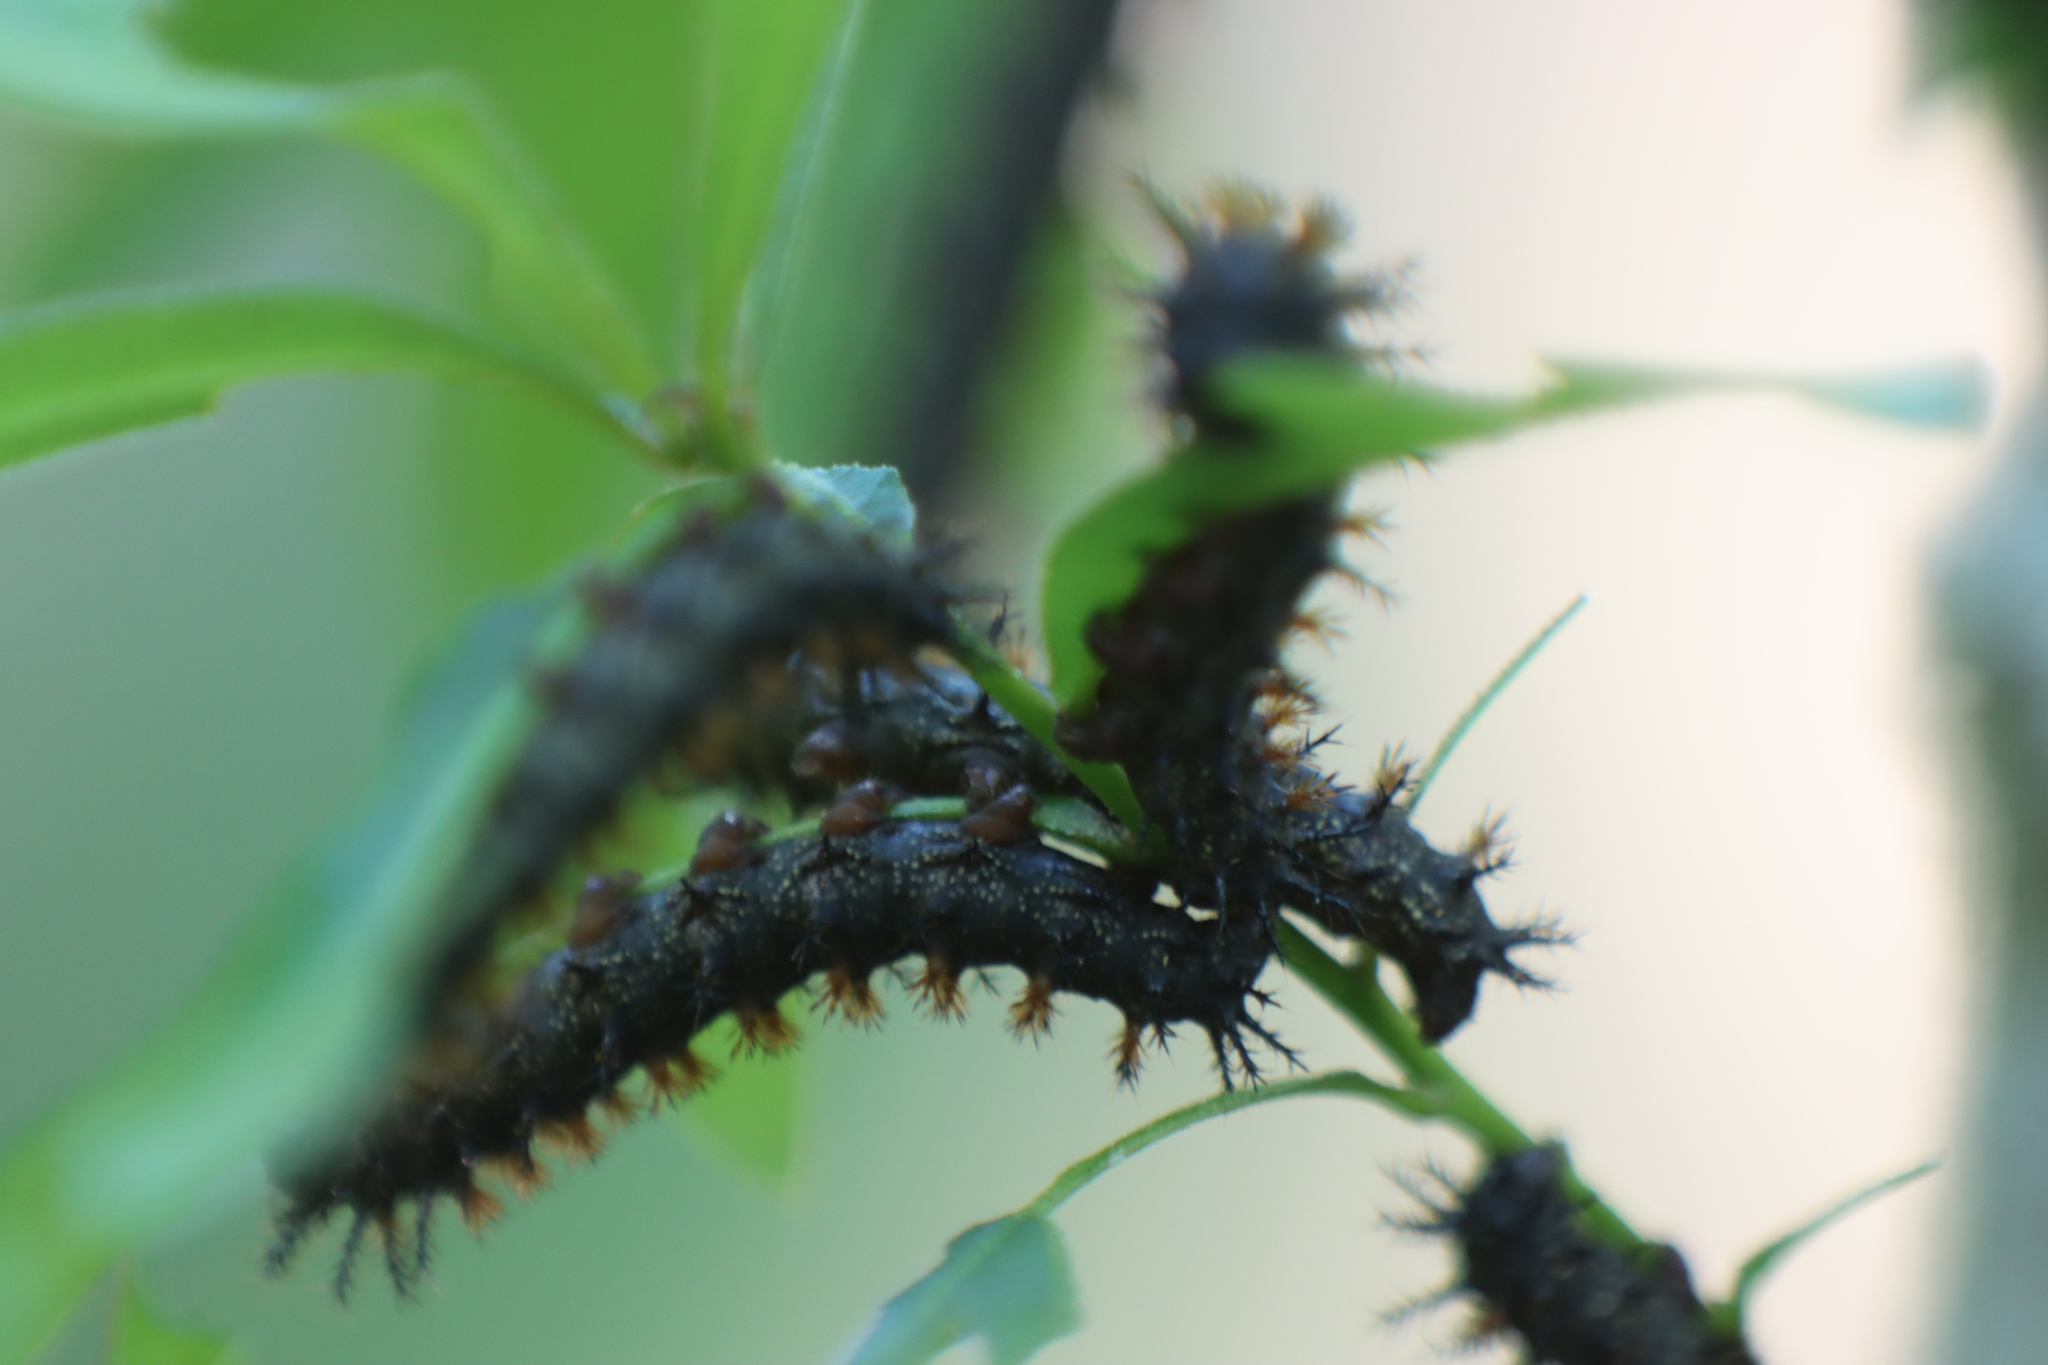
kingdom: Animalia
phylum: Arthropoda
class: Insecta
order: Lepidoptera
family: Saturniidae
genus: Hemileuca
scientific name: Hemileuca maia
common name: Eastern buckmoth
